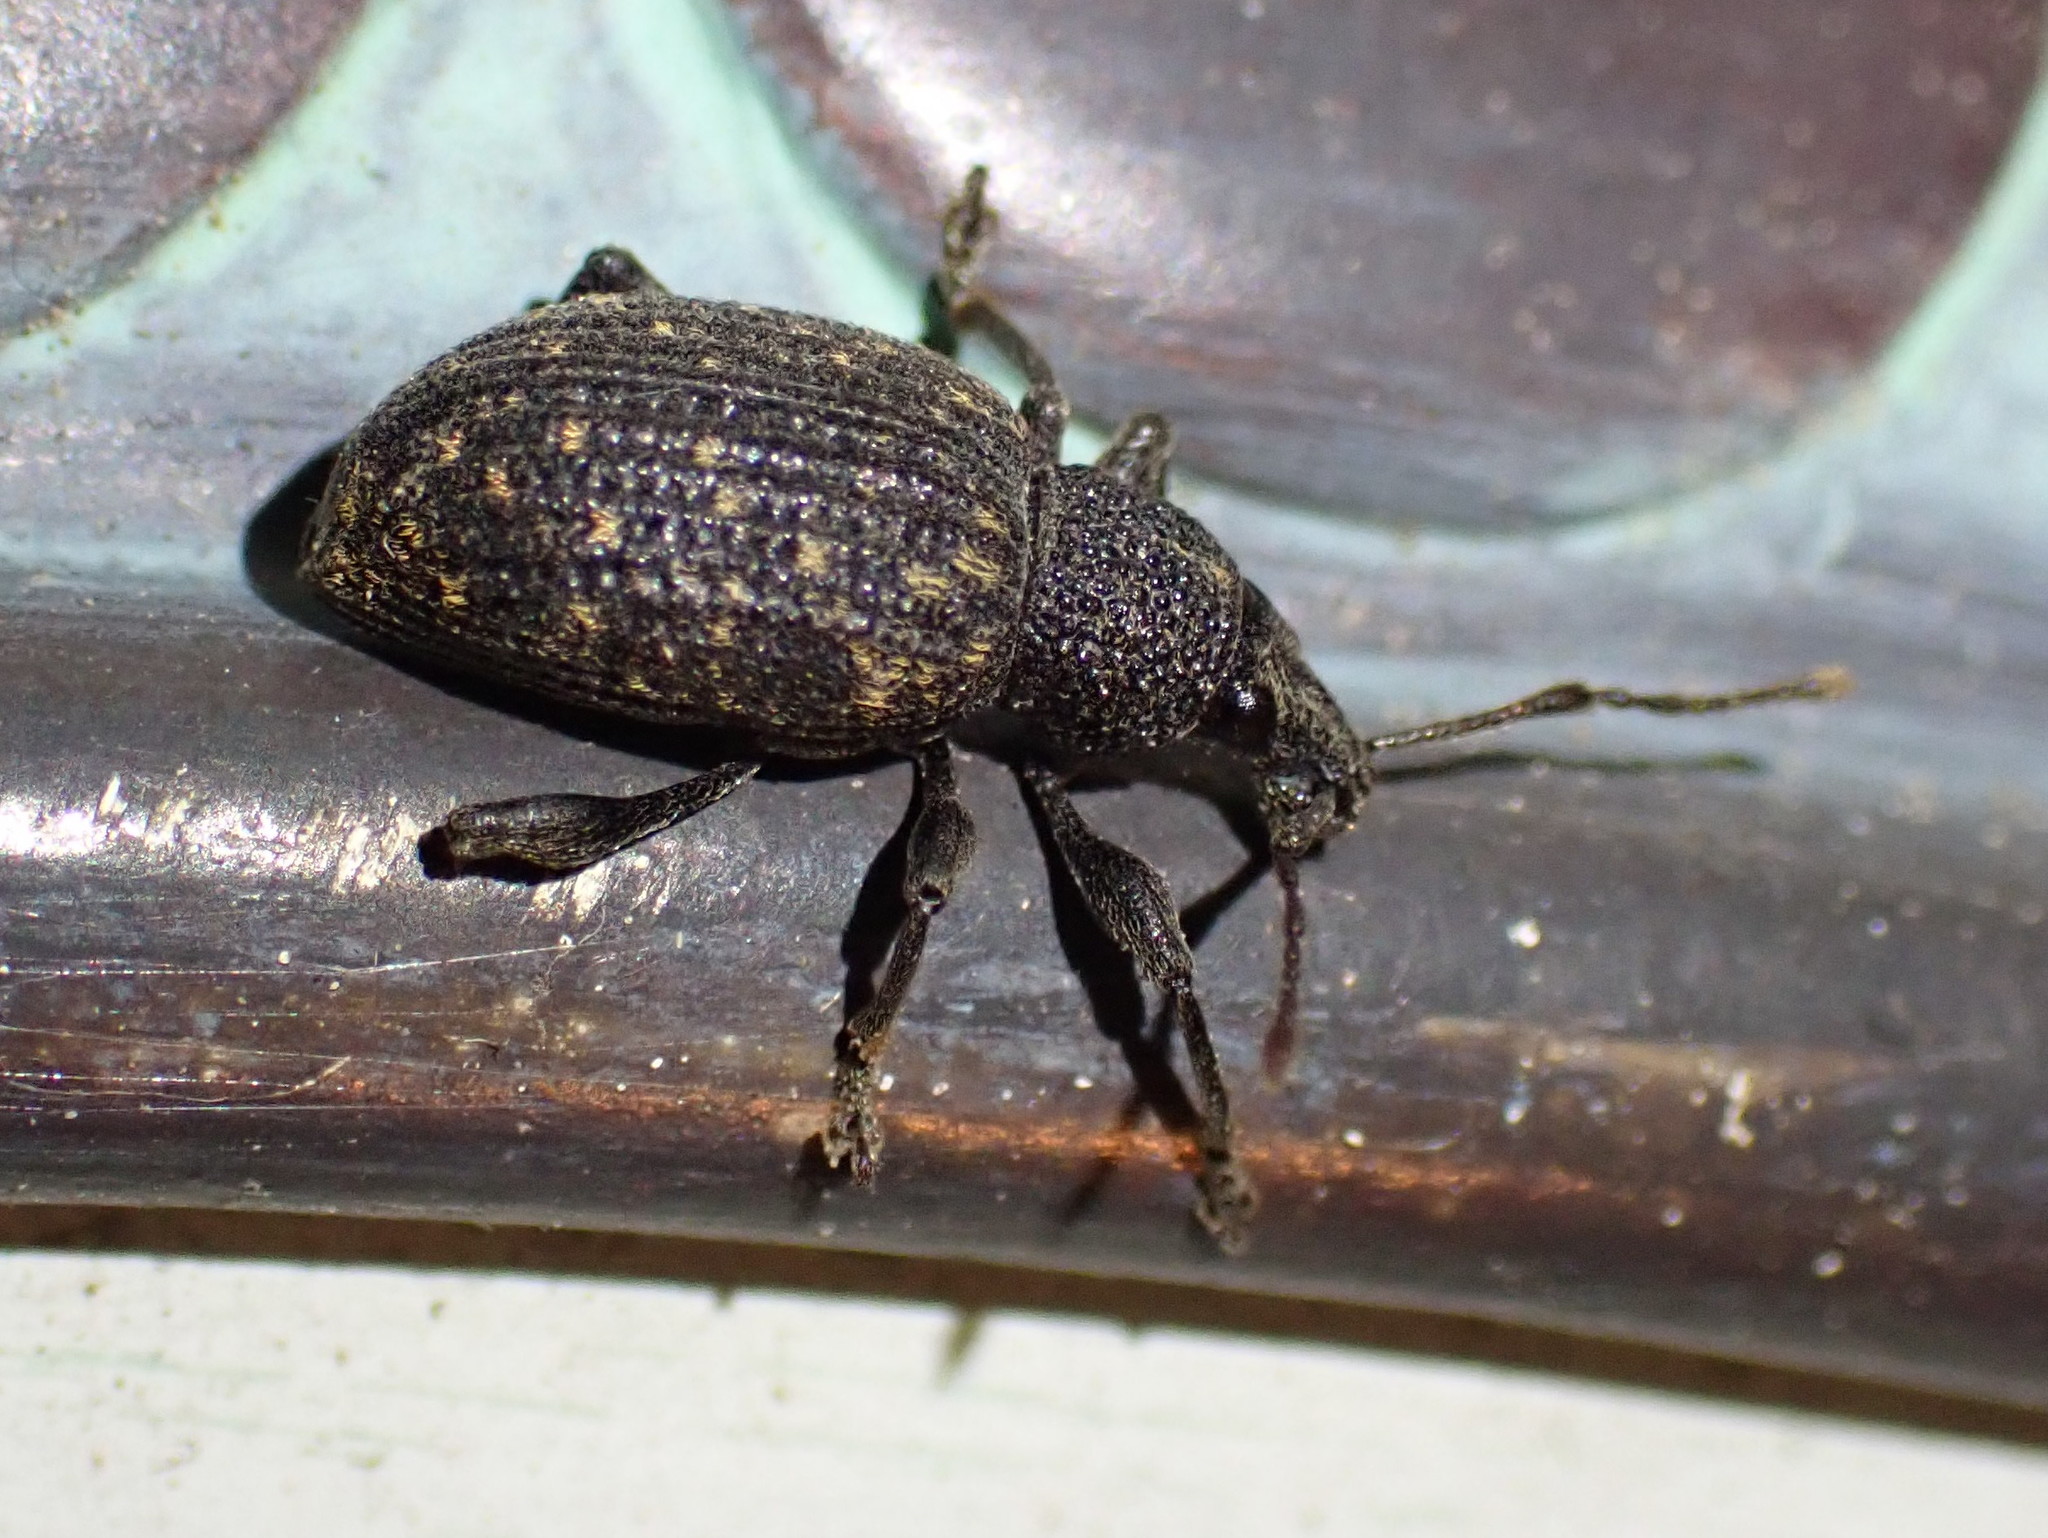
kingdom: Animalia
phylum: Arthropoda
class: Insecta
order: Coleoptera
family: Curculionidae
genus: Otiorhynchus
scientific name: Otiorhynchus sulcatus
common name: Black vine weevil
